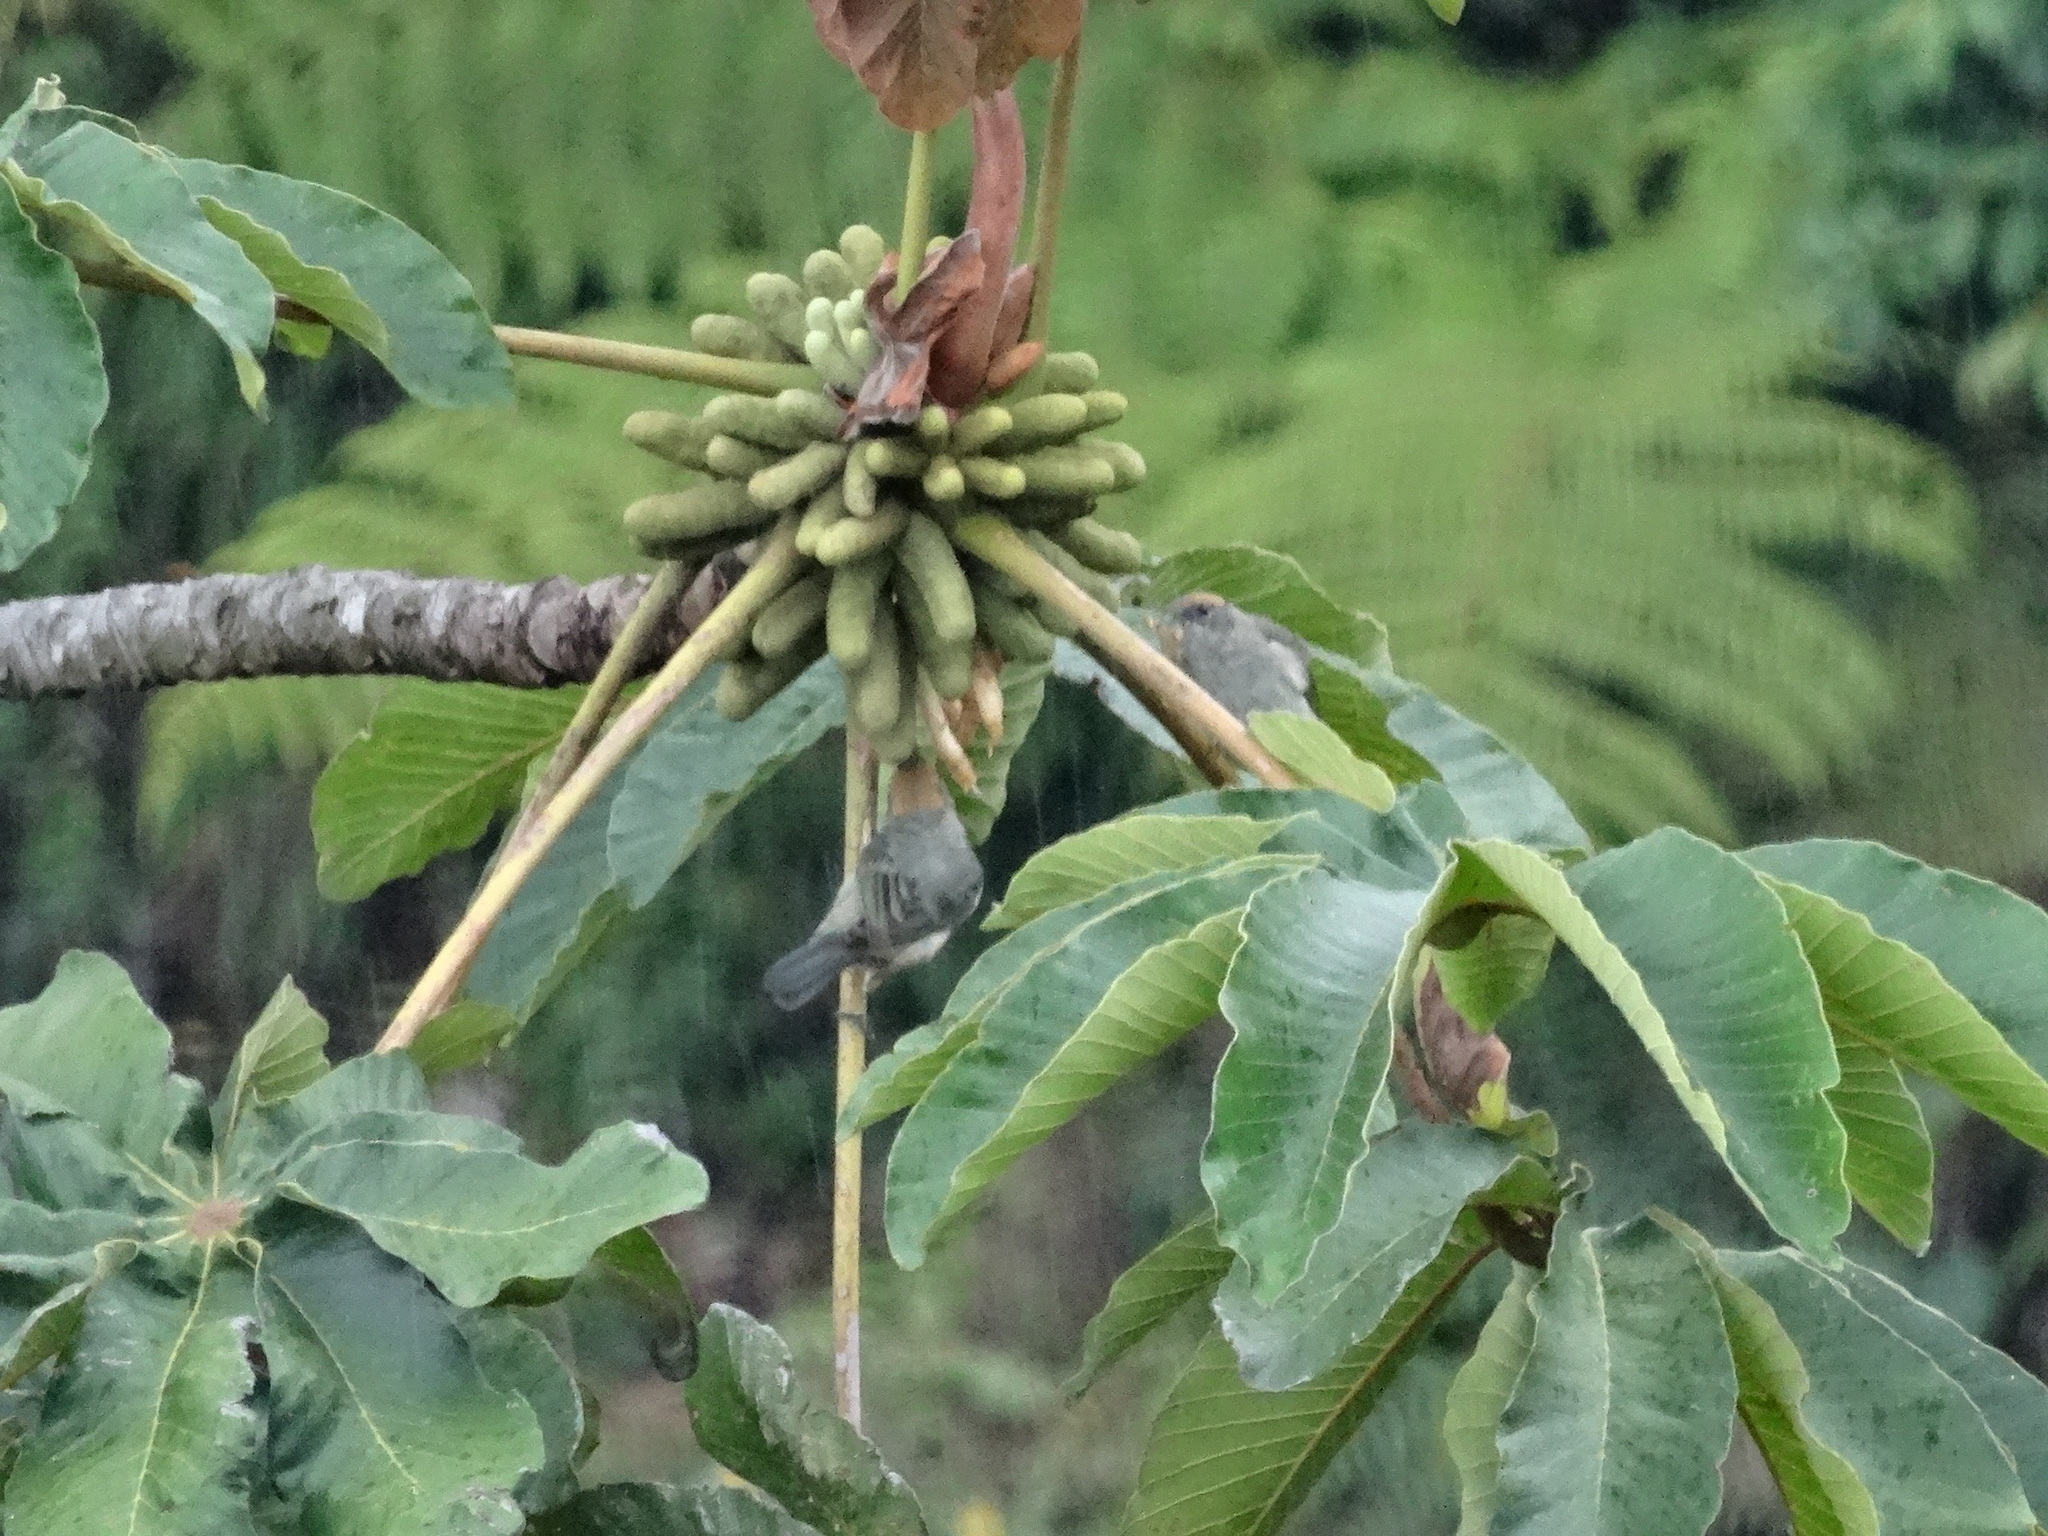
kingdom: Animalia
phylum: Chordata
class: Aves
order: Passeriformes
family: Thraupidae
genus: Stilpnia
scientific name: Stilpnia vitriolina
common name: Scrub tanager
